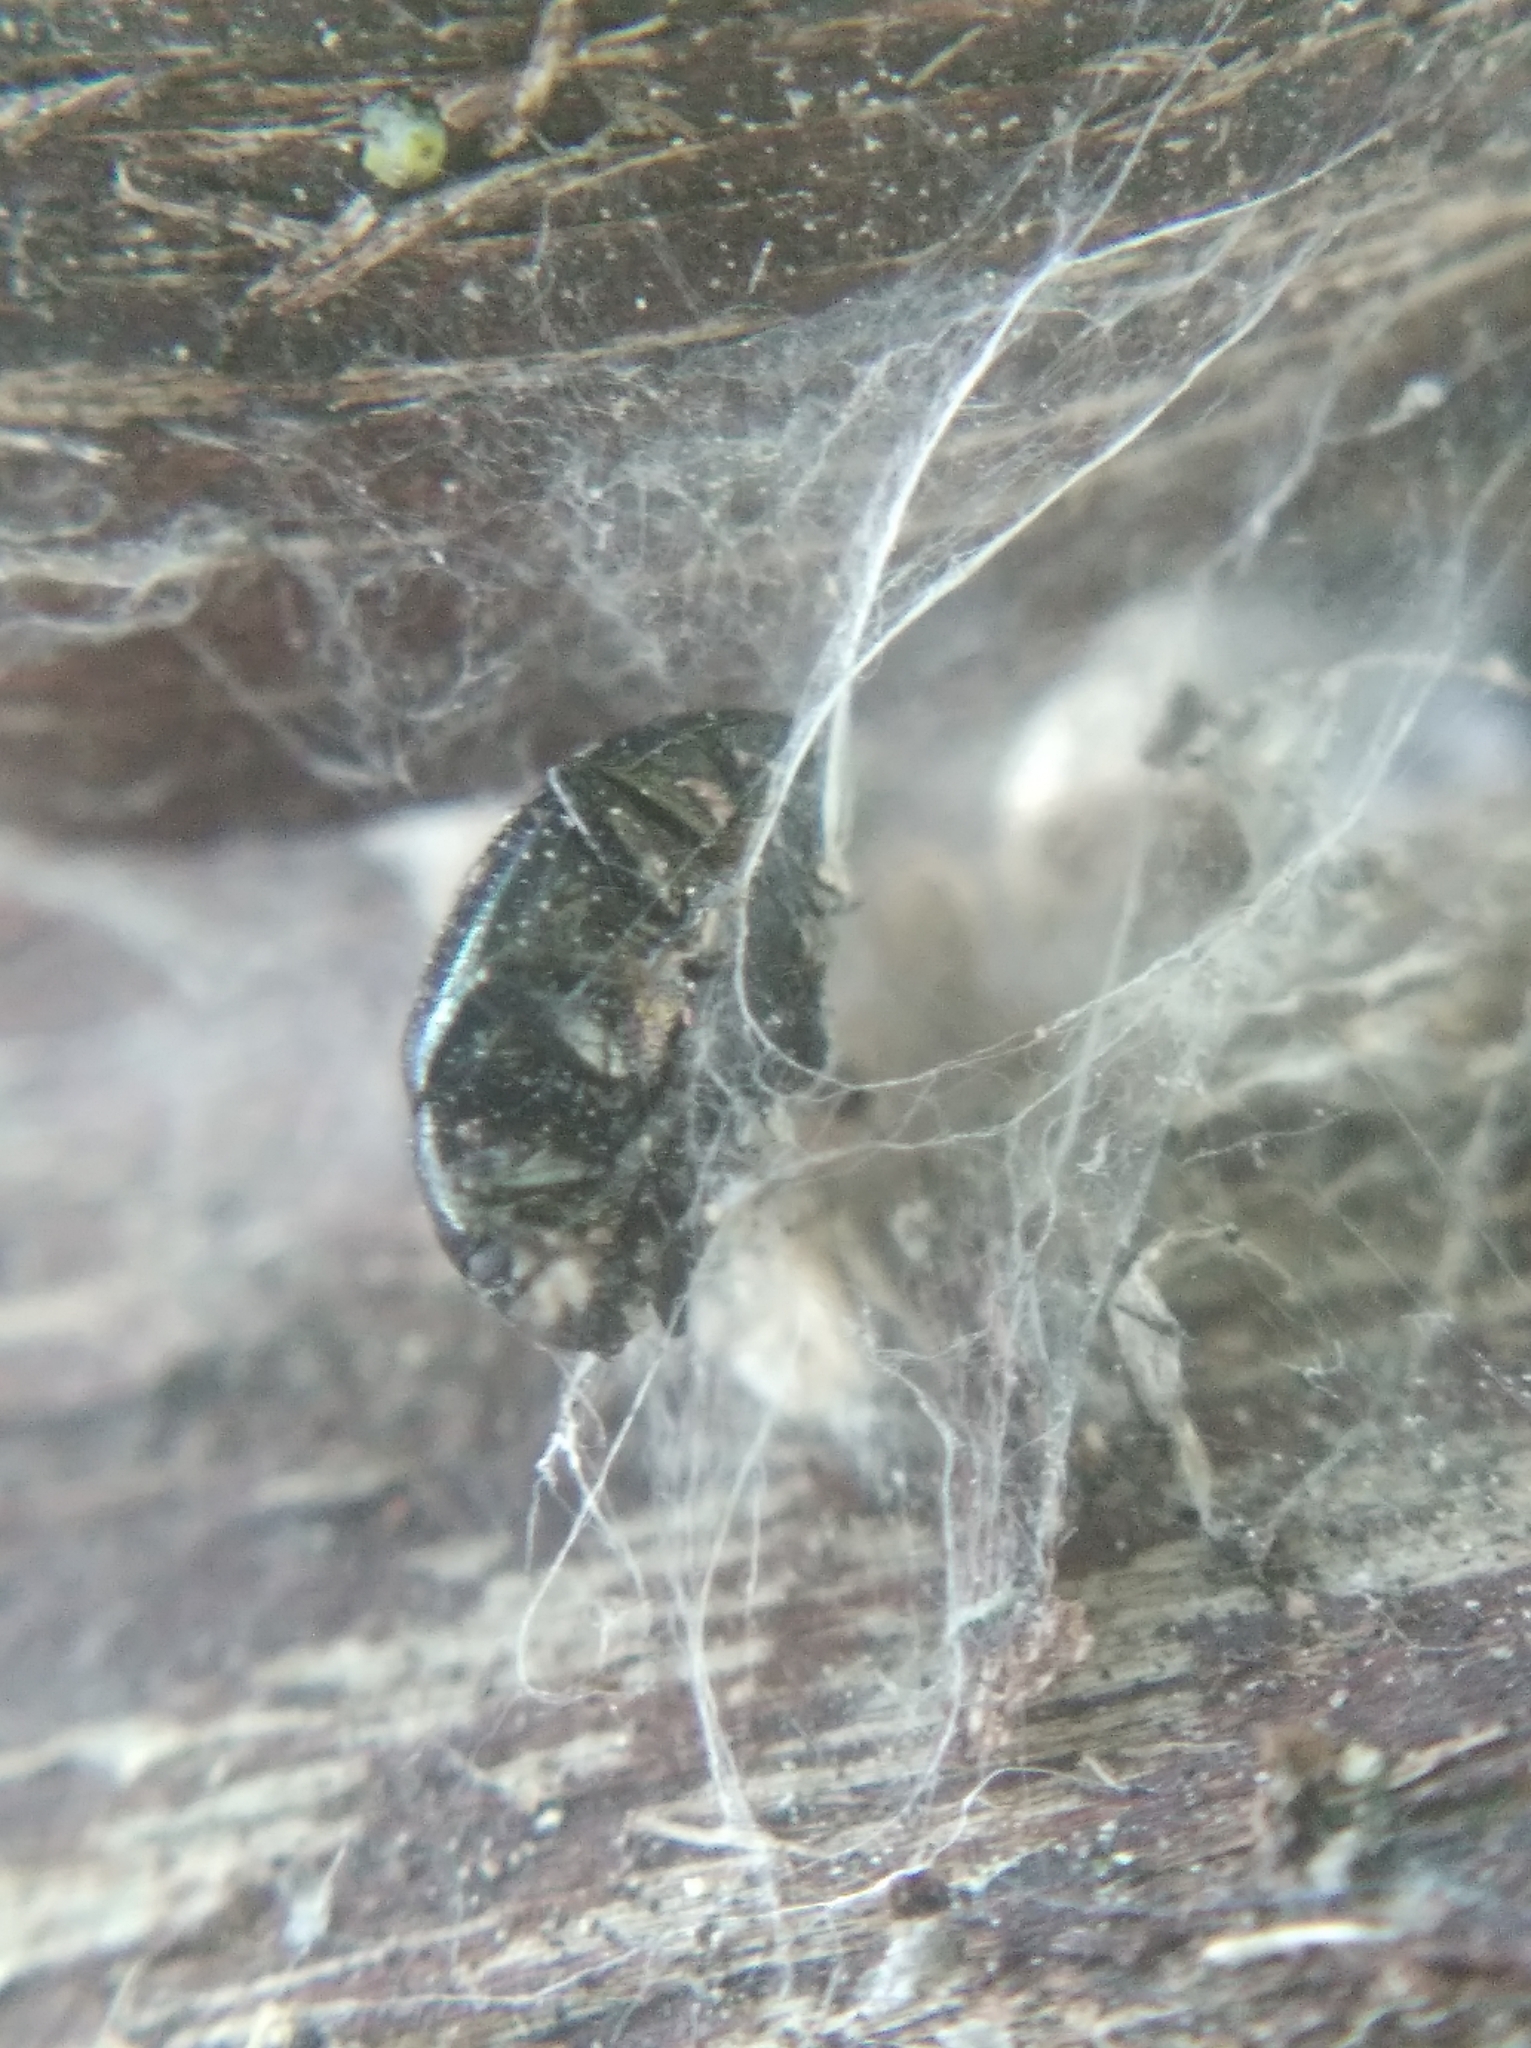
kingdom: Animalia
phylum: Arthropoda
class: Insecta
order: Coleoptera
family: Chrysomelidae
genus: Chrysolina
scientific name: Chrysolina varians
